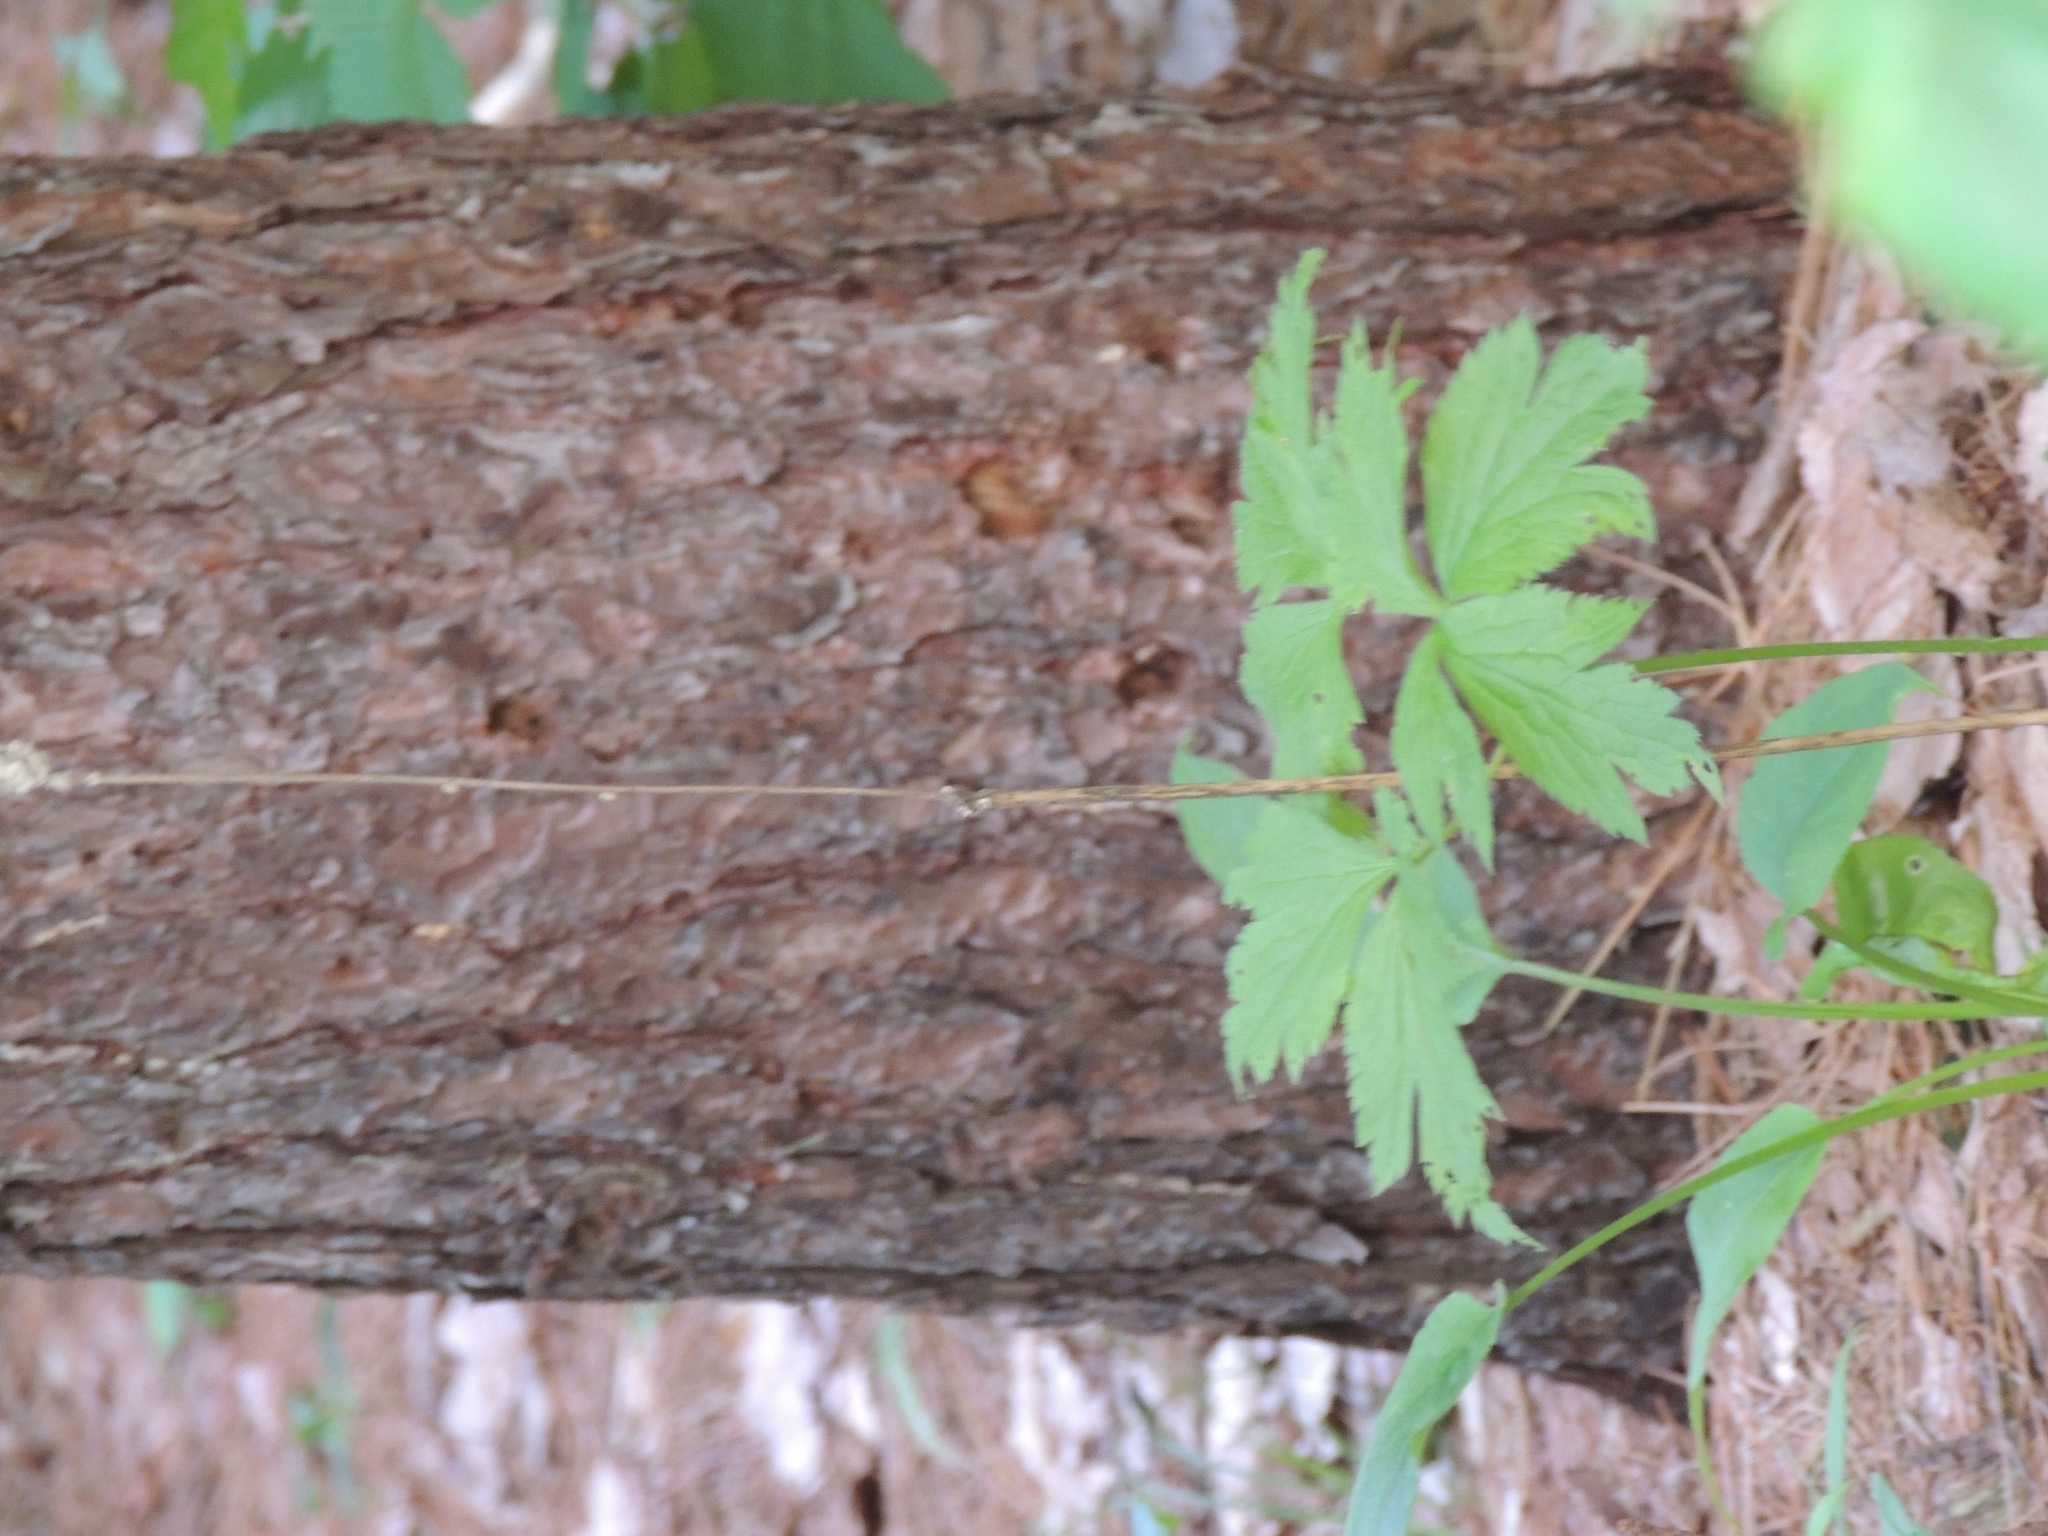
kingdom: Plantae
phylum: Tracheophyta
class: Magnoliopsida
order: Ranunculales
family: Ranunculaceae
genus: Anemone
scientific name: Anemone virginiana
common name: Tall anemone
